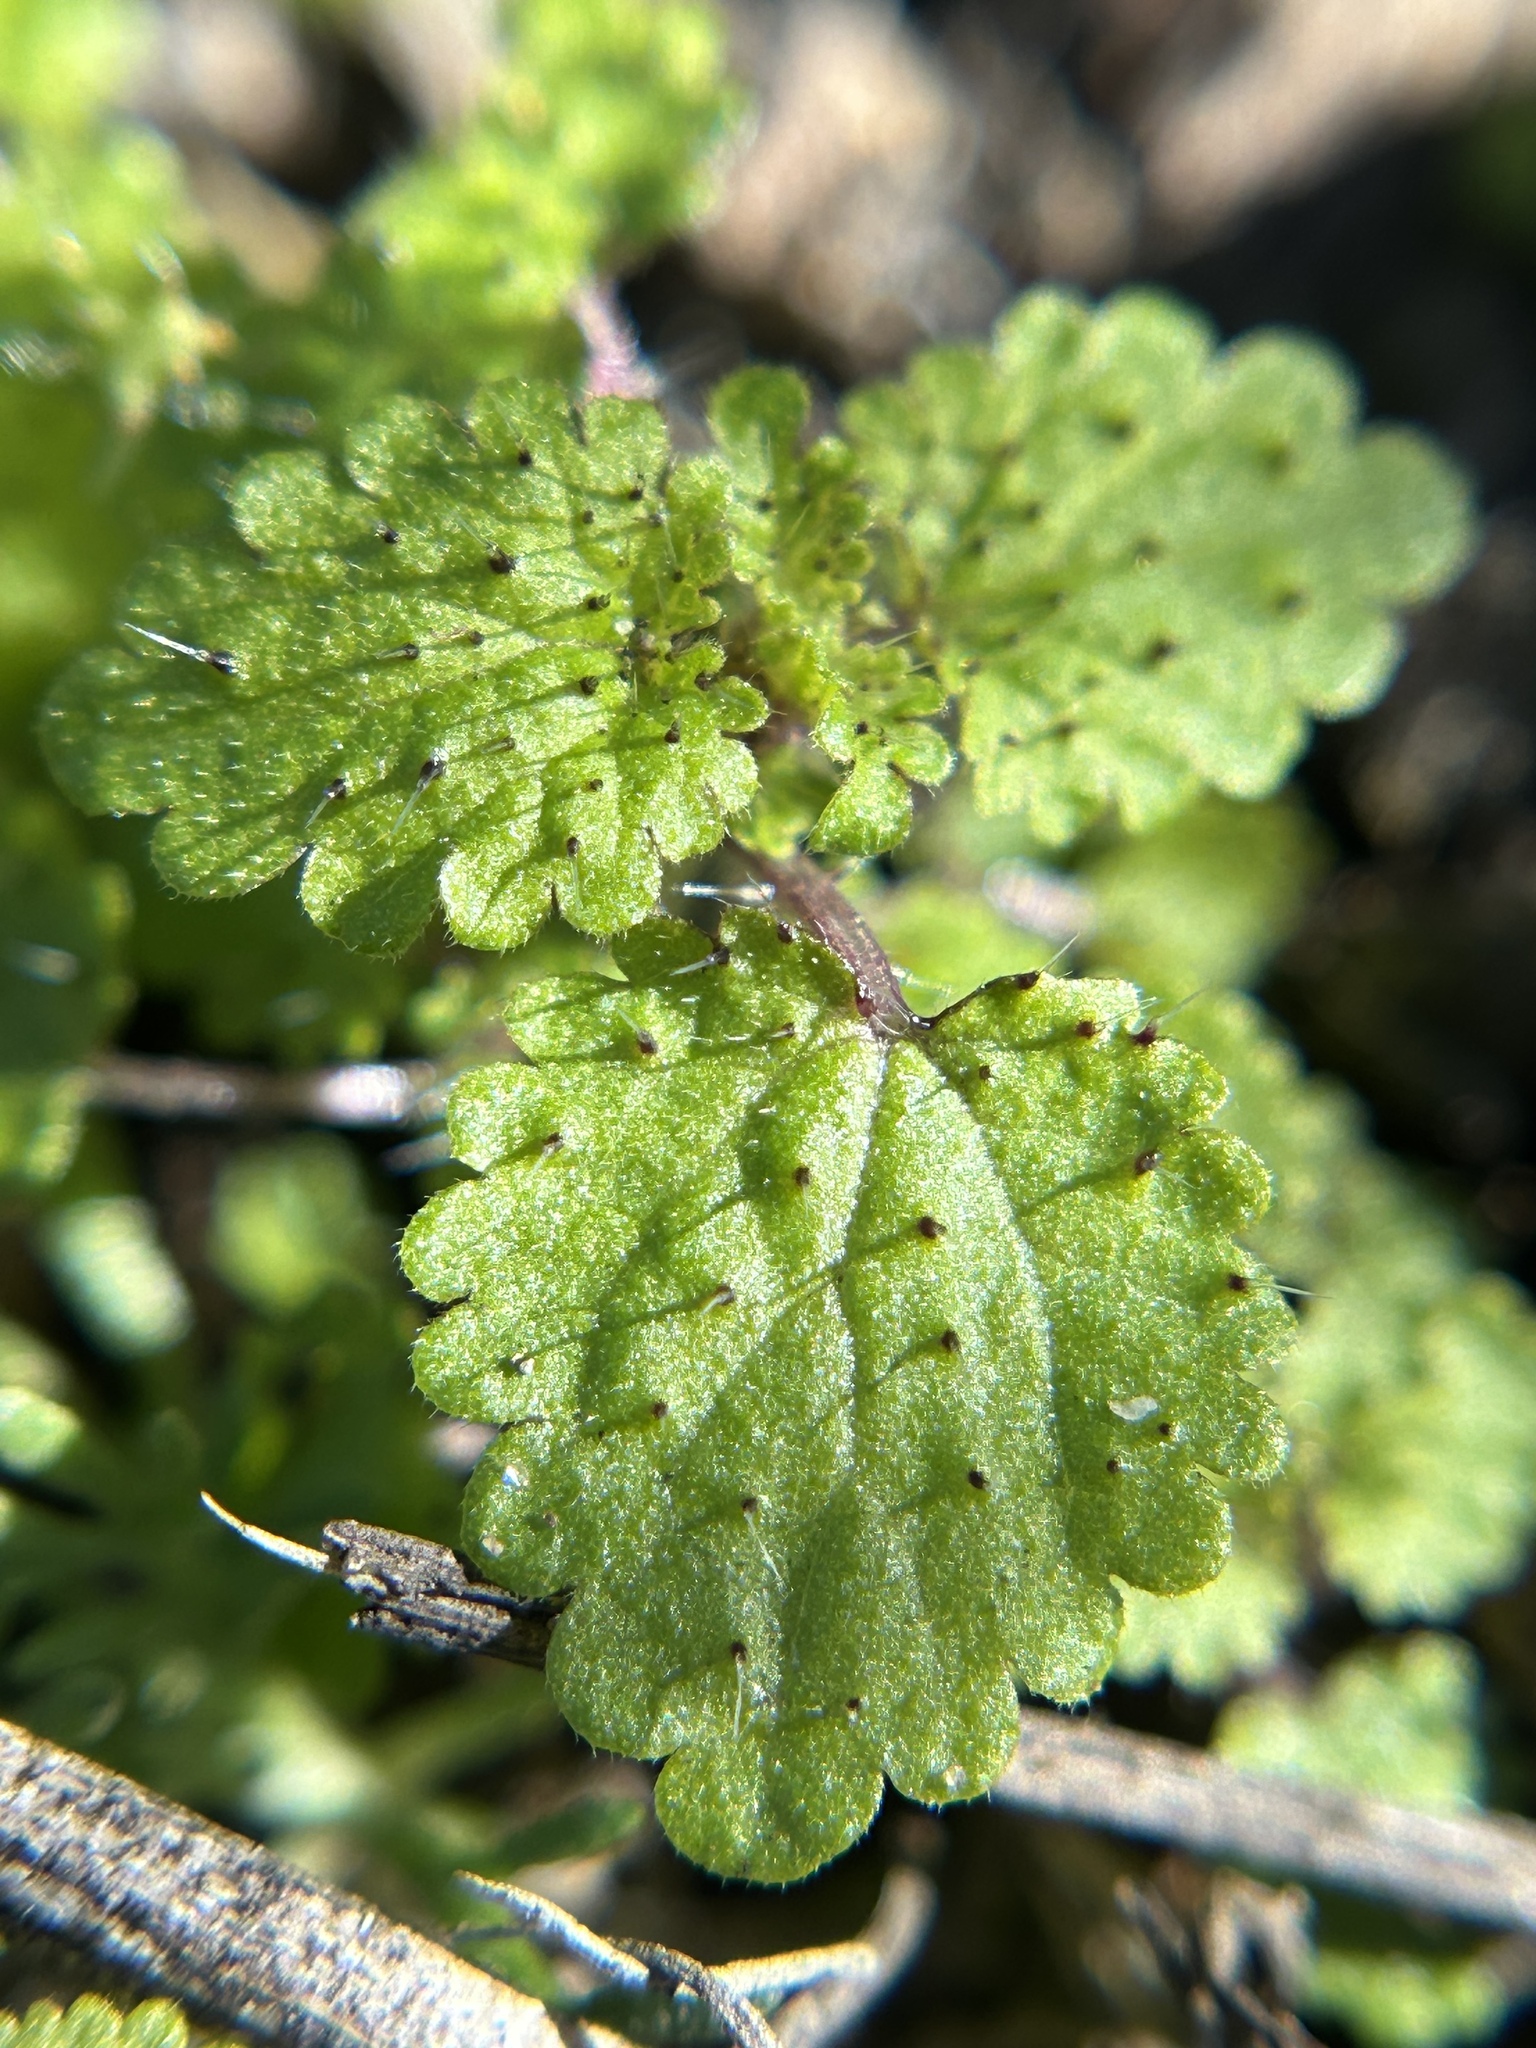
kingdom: Plantae
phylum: Tracheophyta
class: Magnoliopsida
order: Rosales
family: Urticaceae
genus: Hesperocnide
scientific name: Hesperocnide tenella
